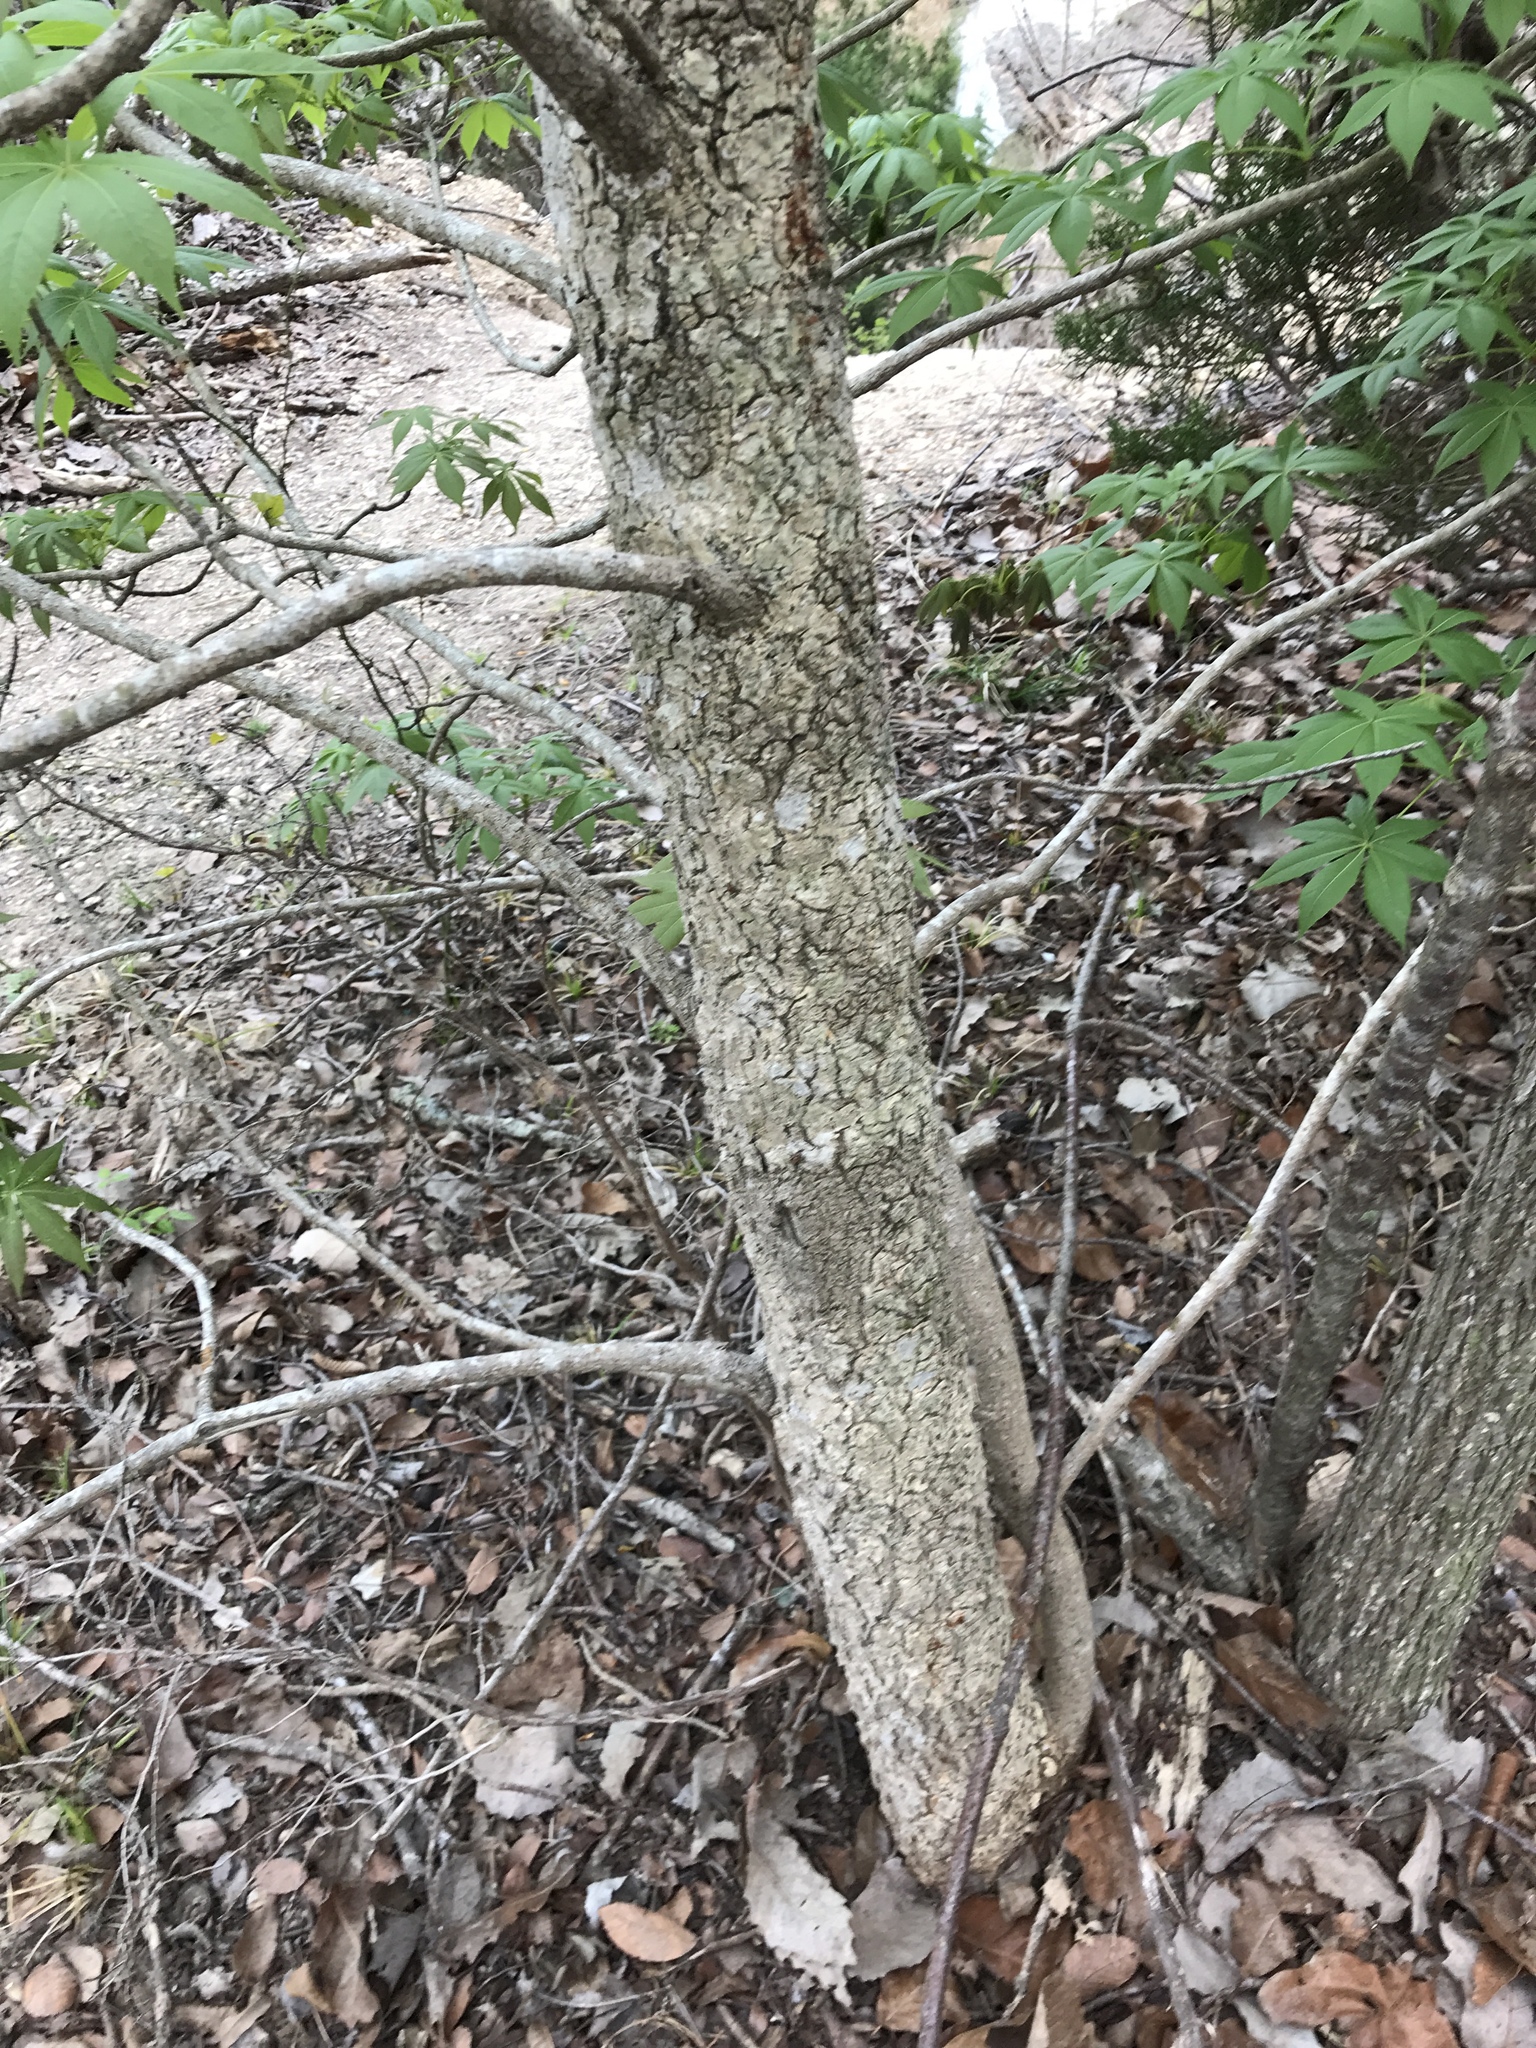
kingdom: Plantae
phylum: Tracheophyta
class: Magnoliopsida
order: Sapindales
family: Sapindaceae
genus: Aesculus
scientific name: Aesculus glabra
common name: Ohio buckeye
